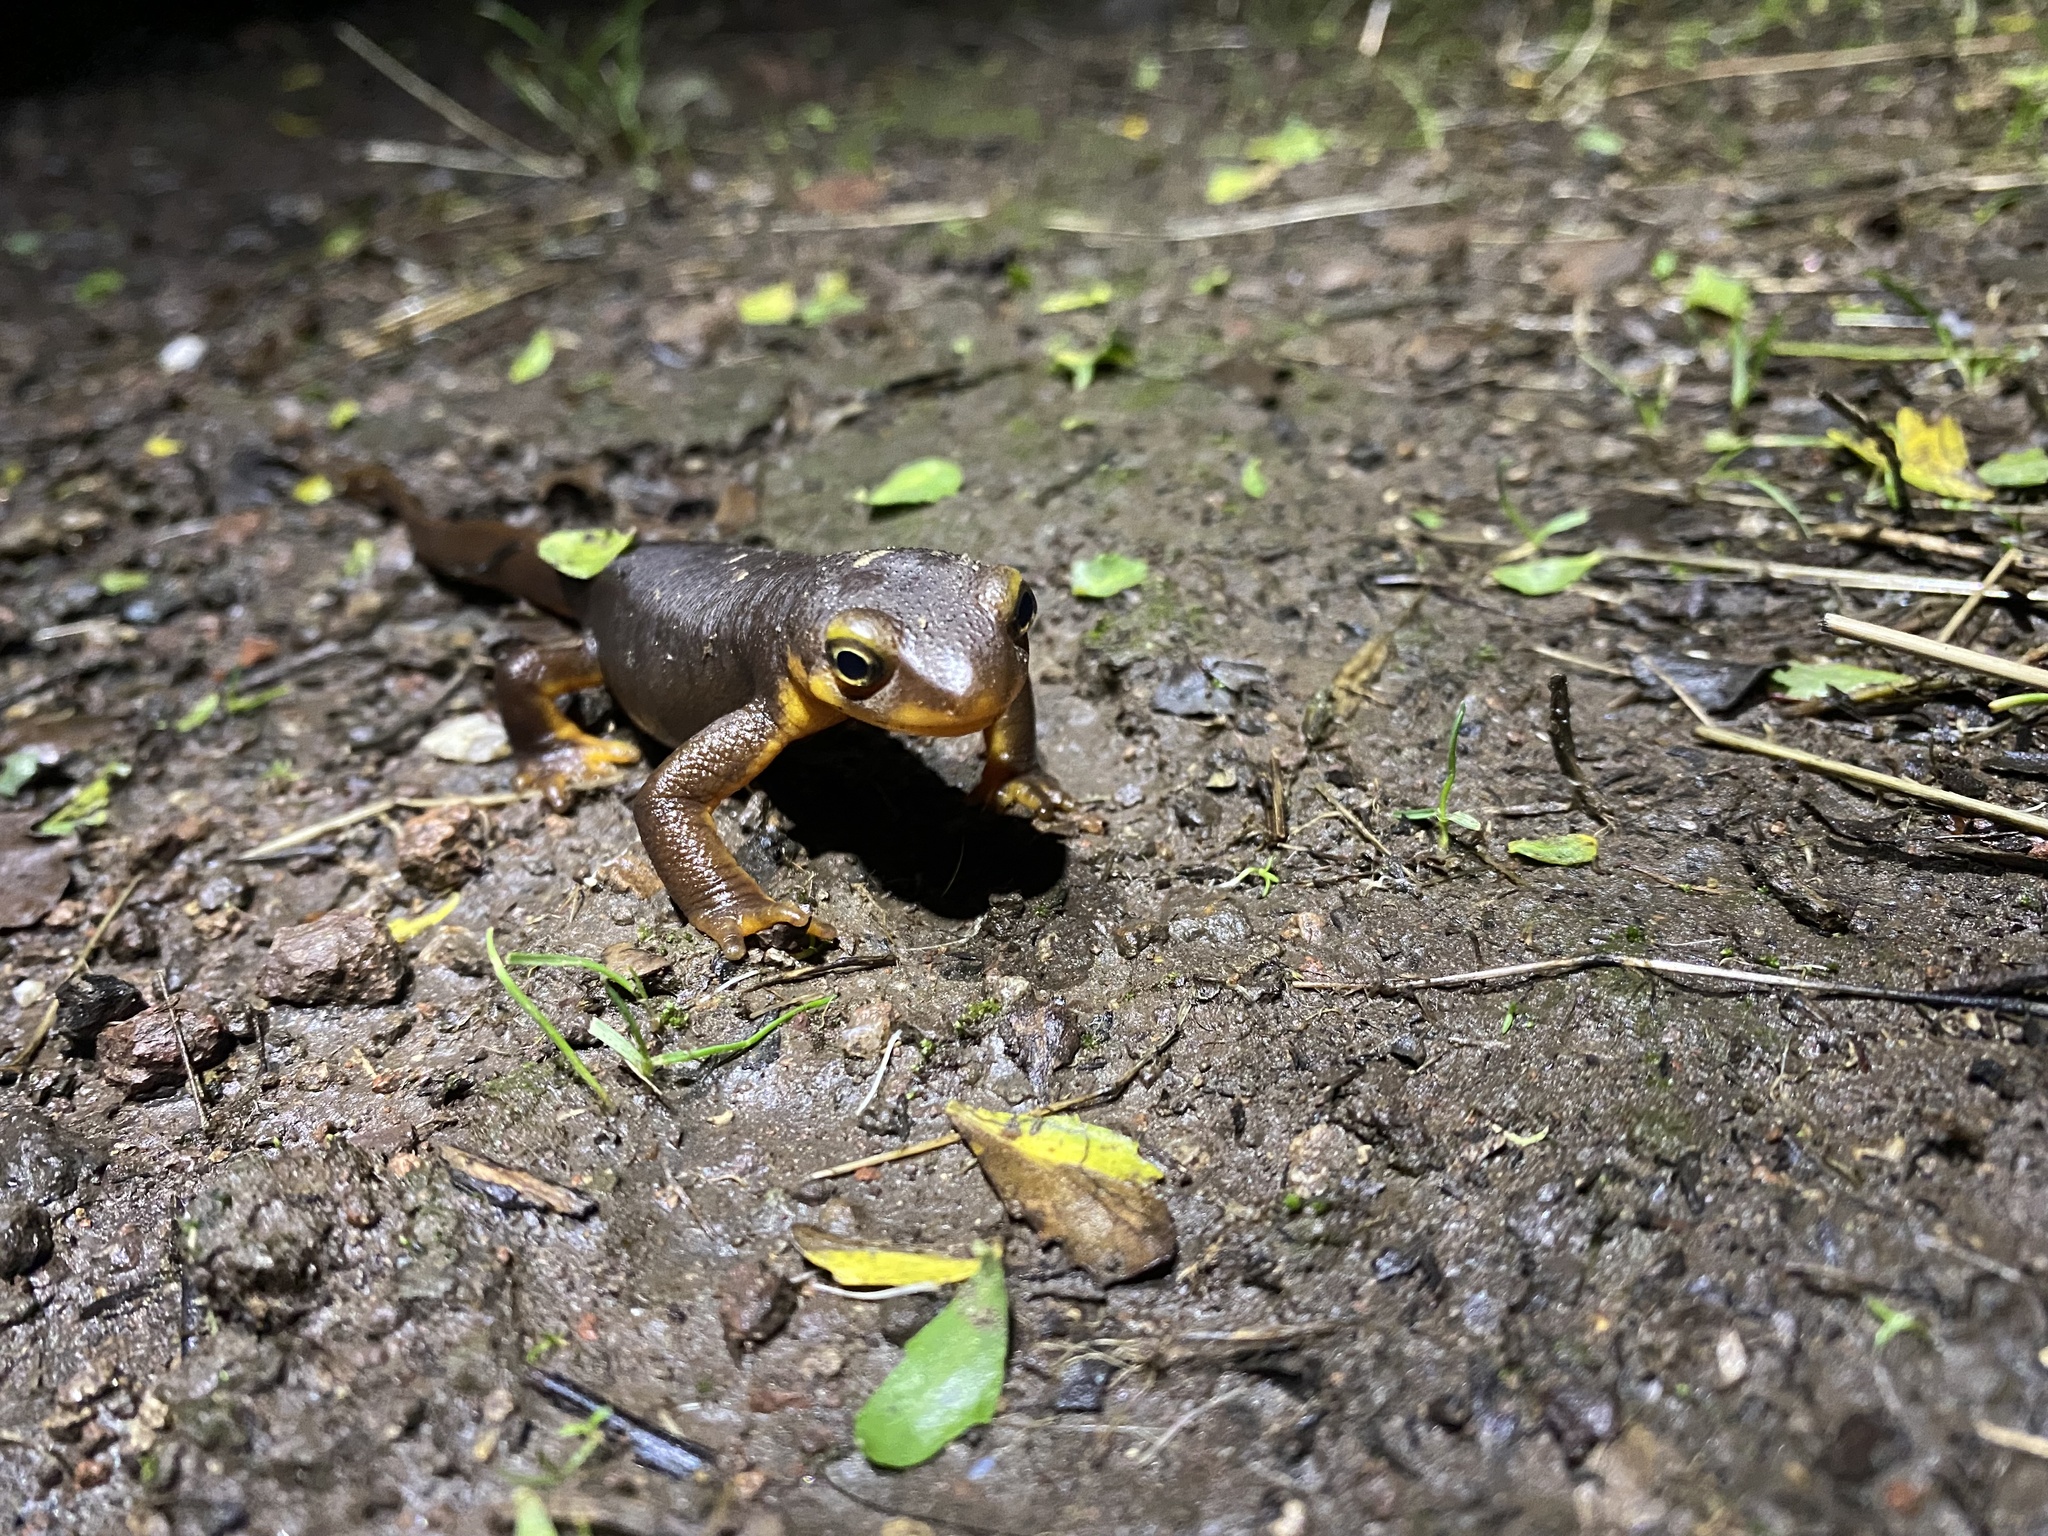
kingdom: Animalia
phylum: Chordata
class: Amphibia
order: Caudata
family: Salamandridae
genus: Taricha
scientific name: Taricha torosa
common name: California newt
